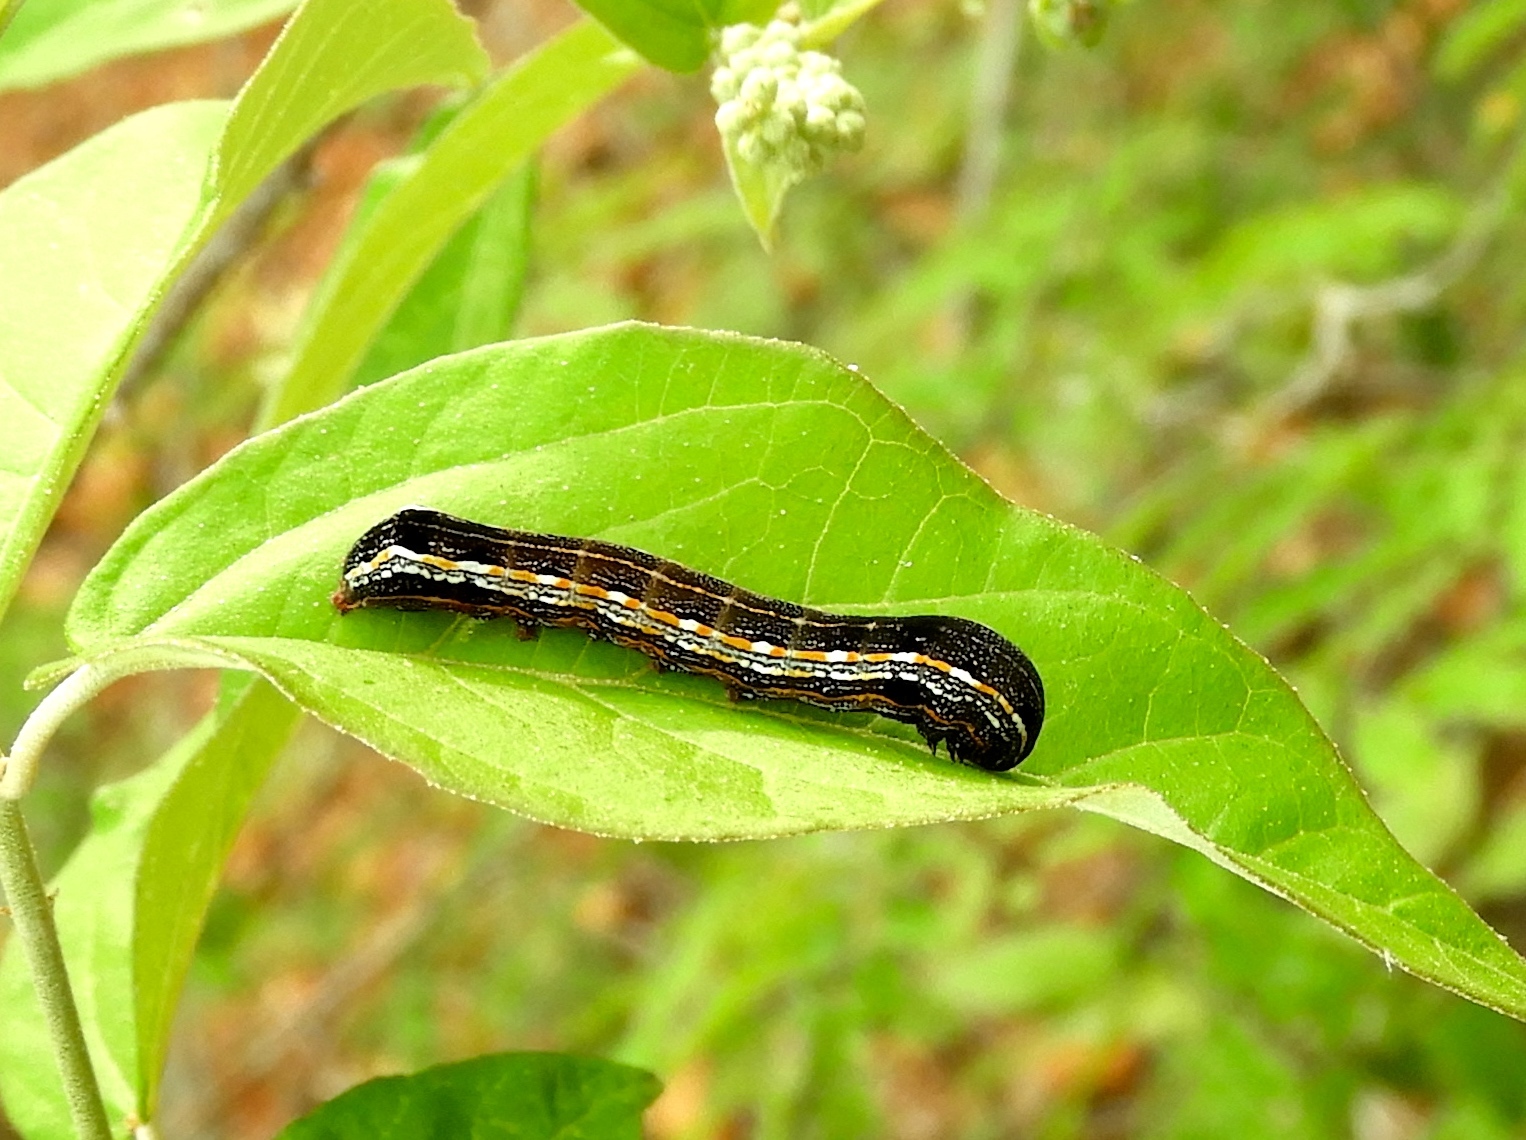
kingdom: Animalia
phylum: Arthropoda
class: Insecta
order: Lepidoptera
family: Noctuidae
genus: Spodoptera
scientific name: Spodoptera
